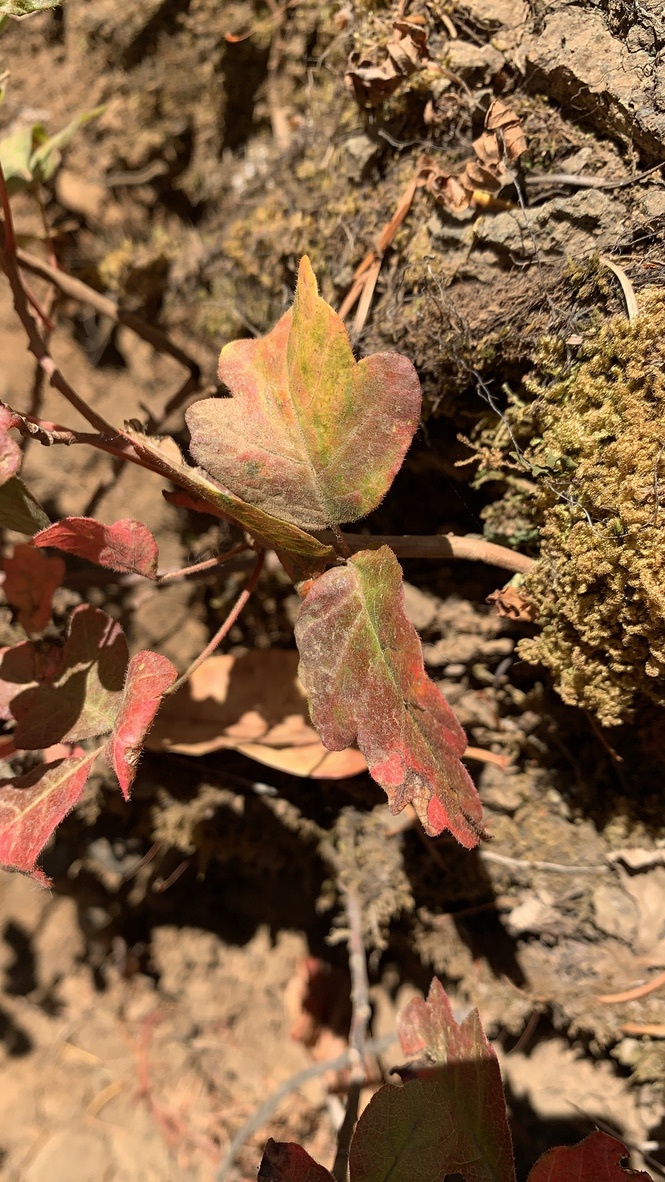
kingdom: Plantae
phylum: Tracheophyta
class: Magnoliopsida
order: Sapindales
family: Anacardiaceae
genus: Toxicodendron
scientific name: Toxicodendron diversilobum
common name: Pacific poison-oak
